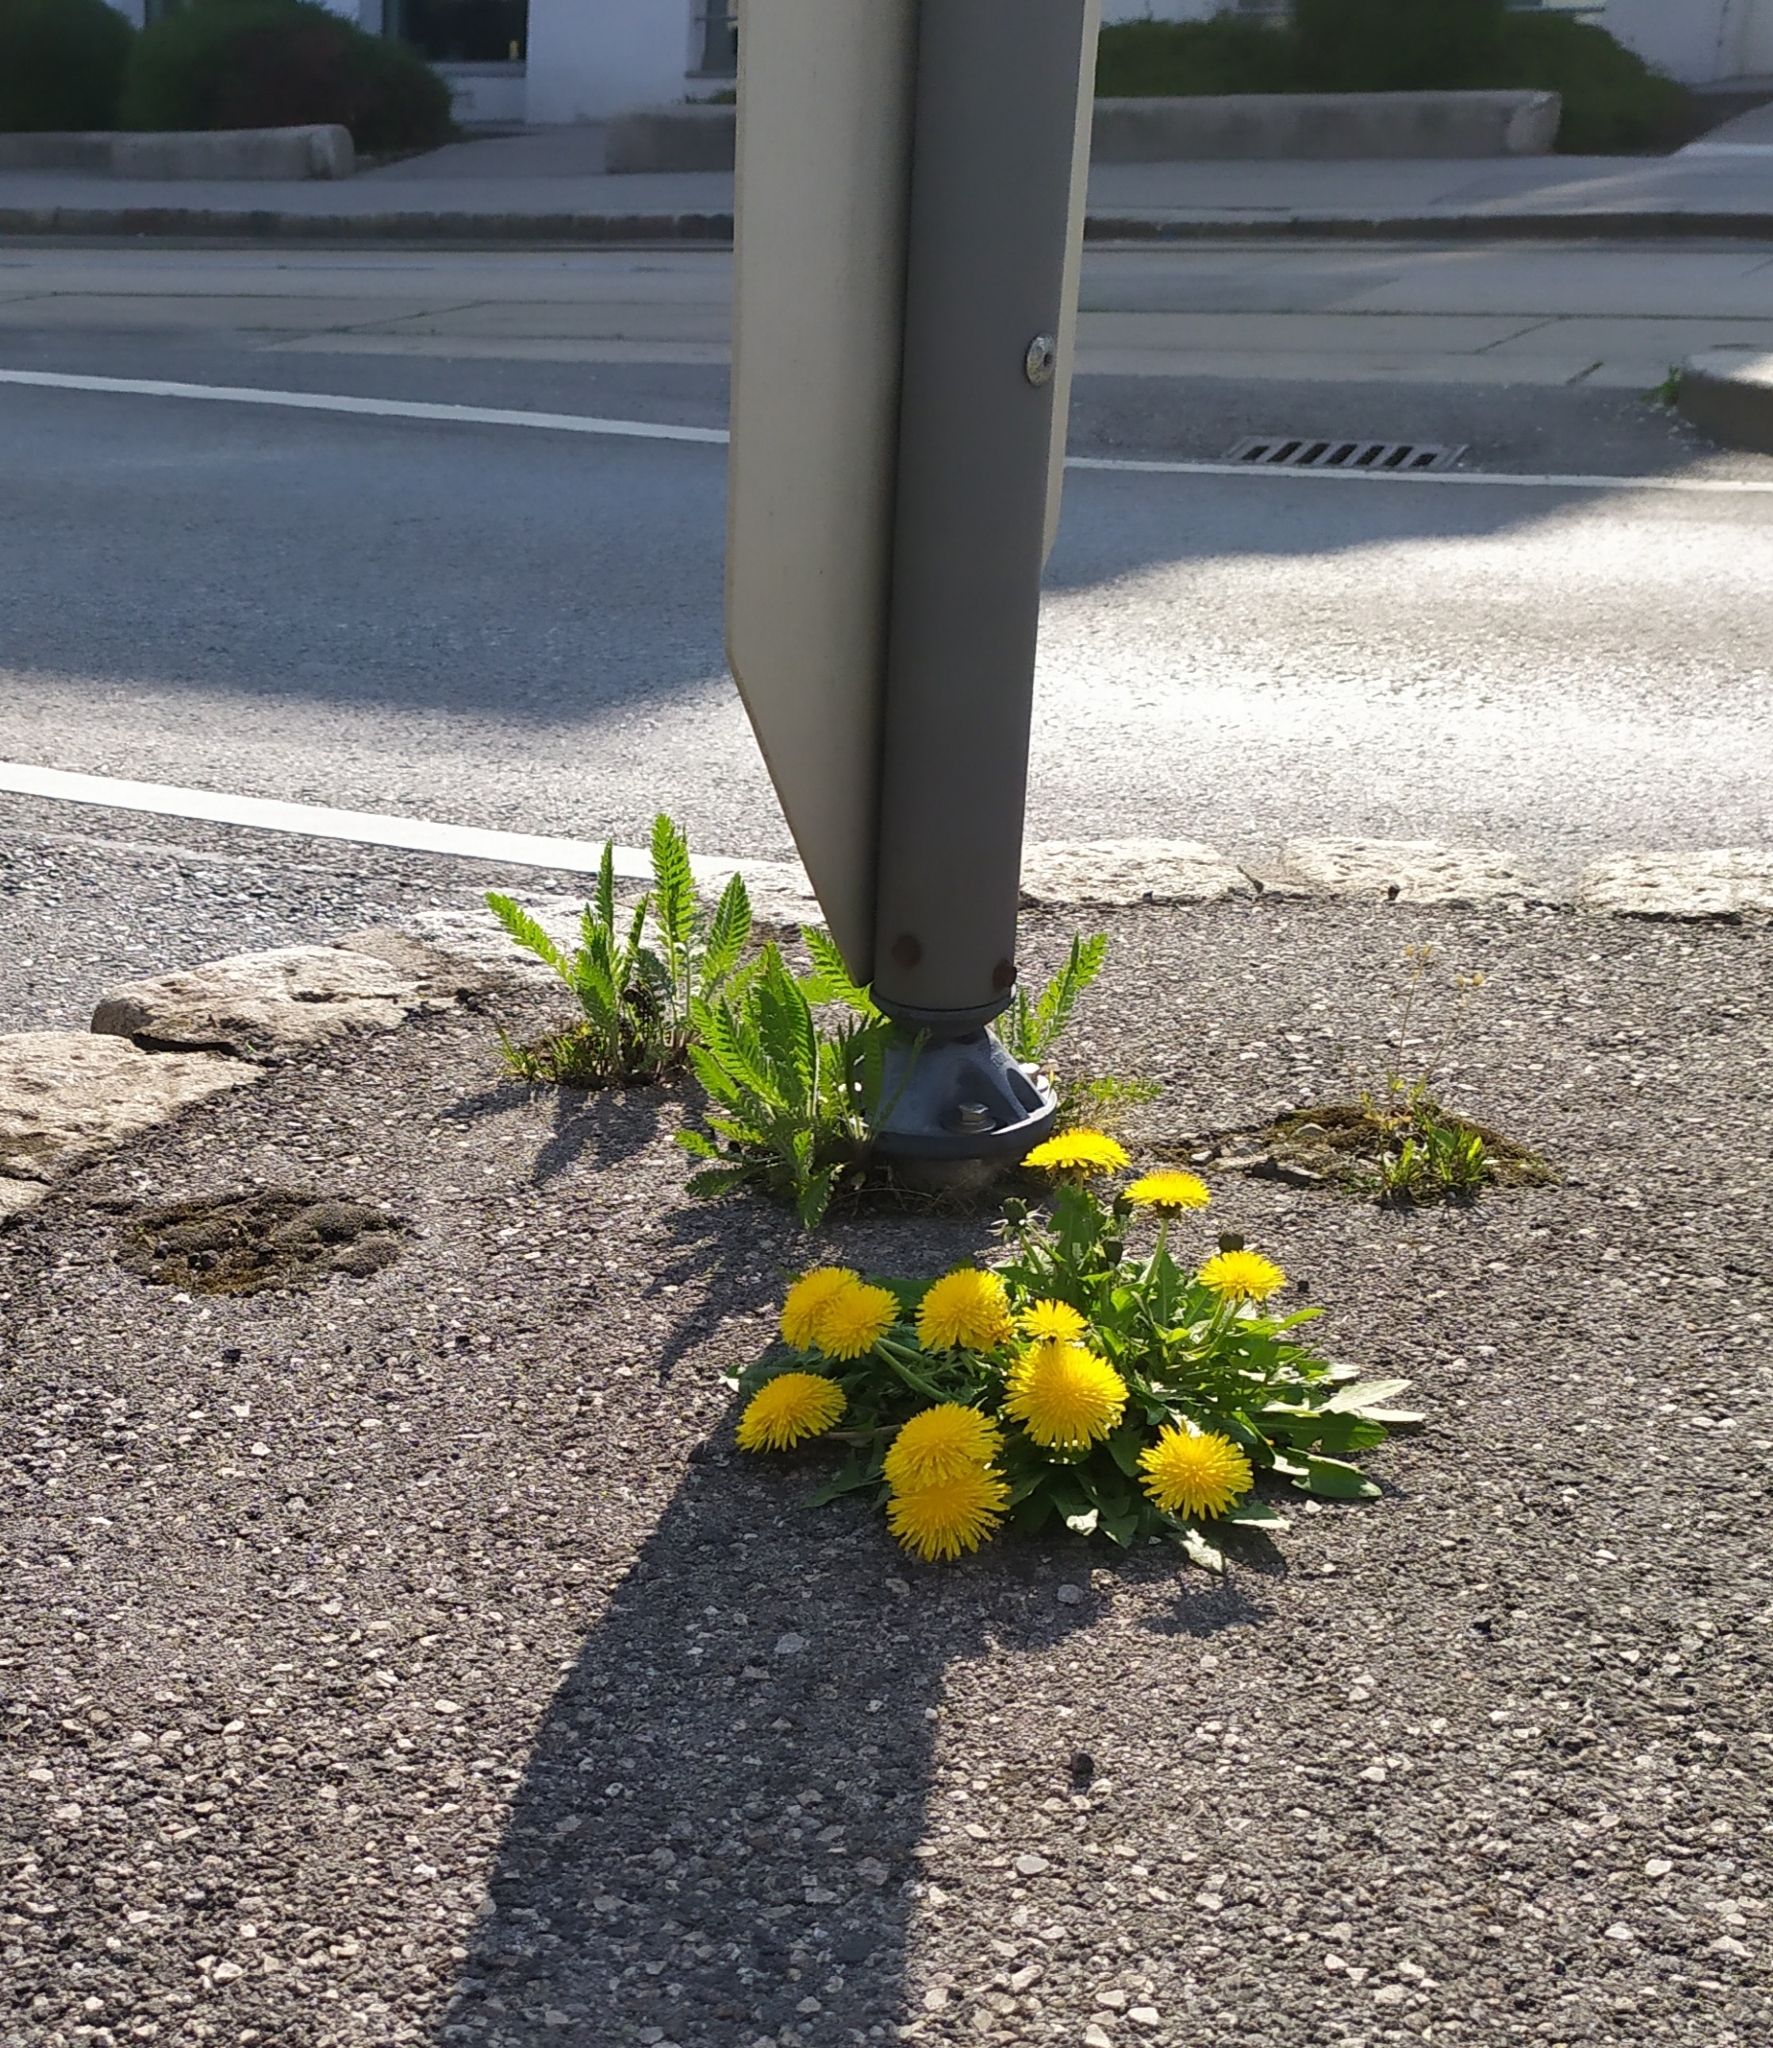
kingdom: Plantae
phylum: Tracheophyta
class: Magnoliopsida
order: Asterales
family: Asteraceae
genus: Achillea
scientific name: Achillea filipendulina
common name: Fernleaf yarrow
